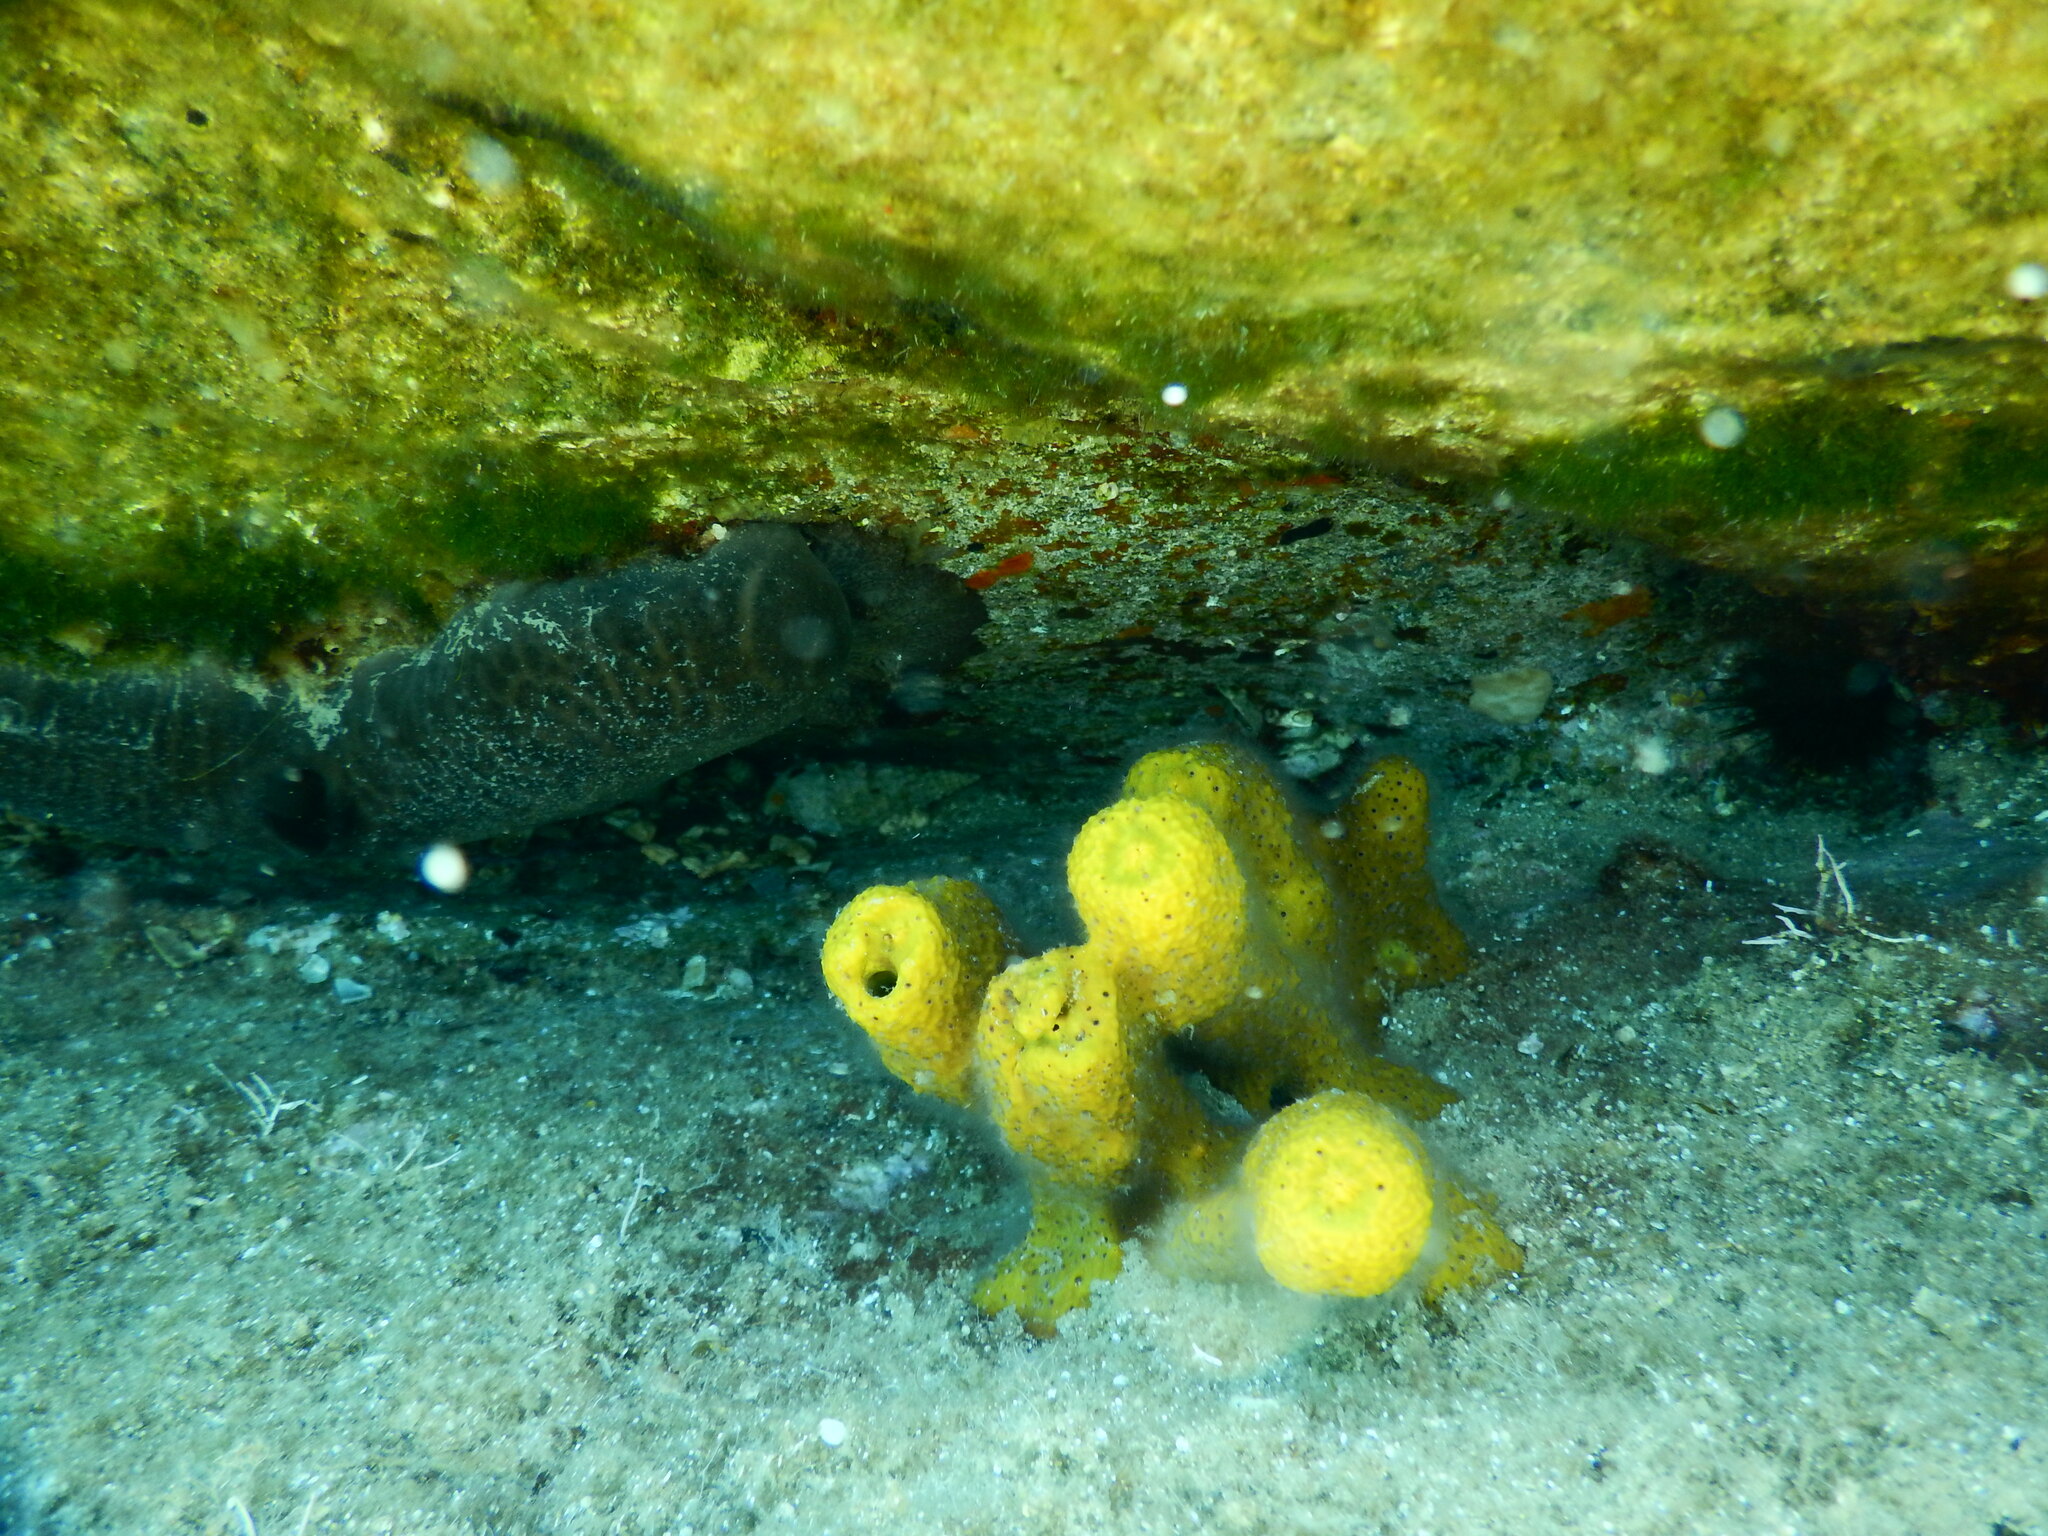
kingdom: Animalia
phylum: Porifera
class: Demospongiae
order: Verongiida
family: Aplysinidae
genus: Aplysina
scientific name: Aplysina aerophoba
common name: Aureate sponge
